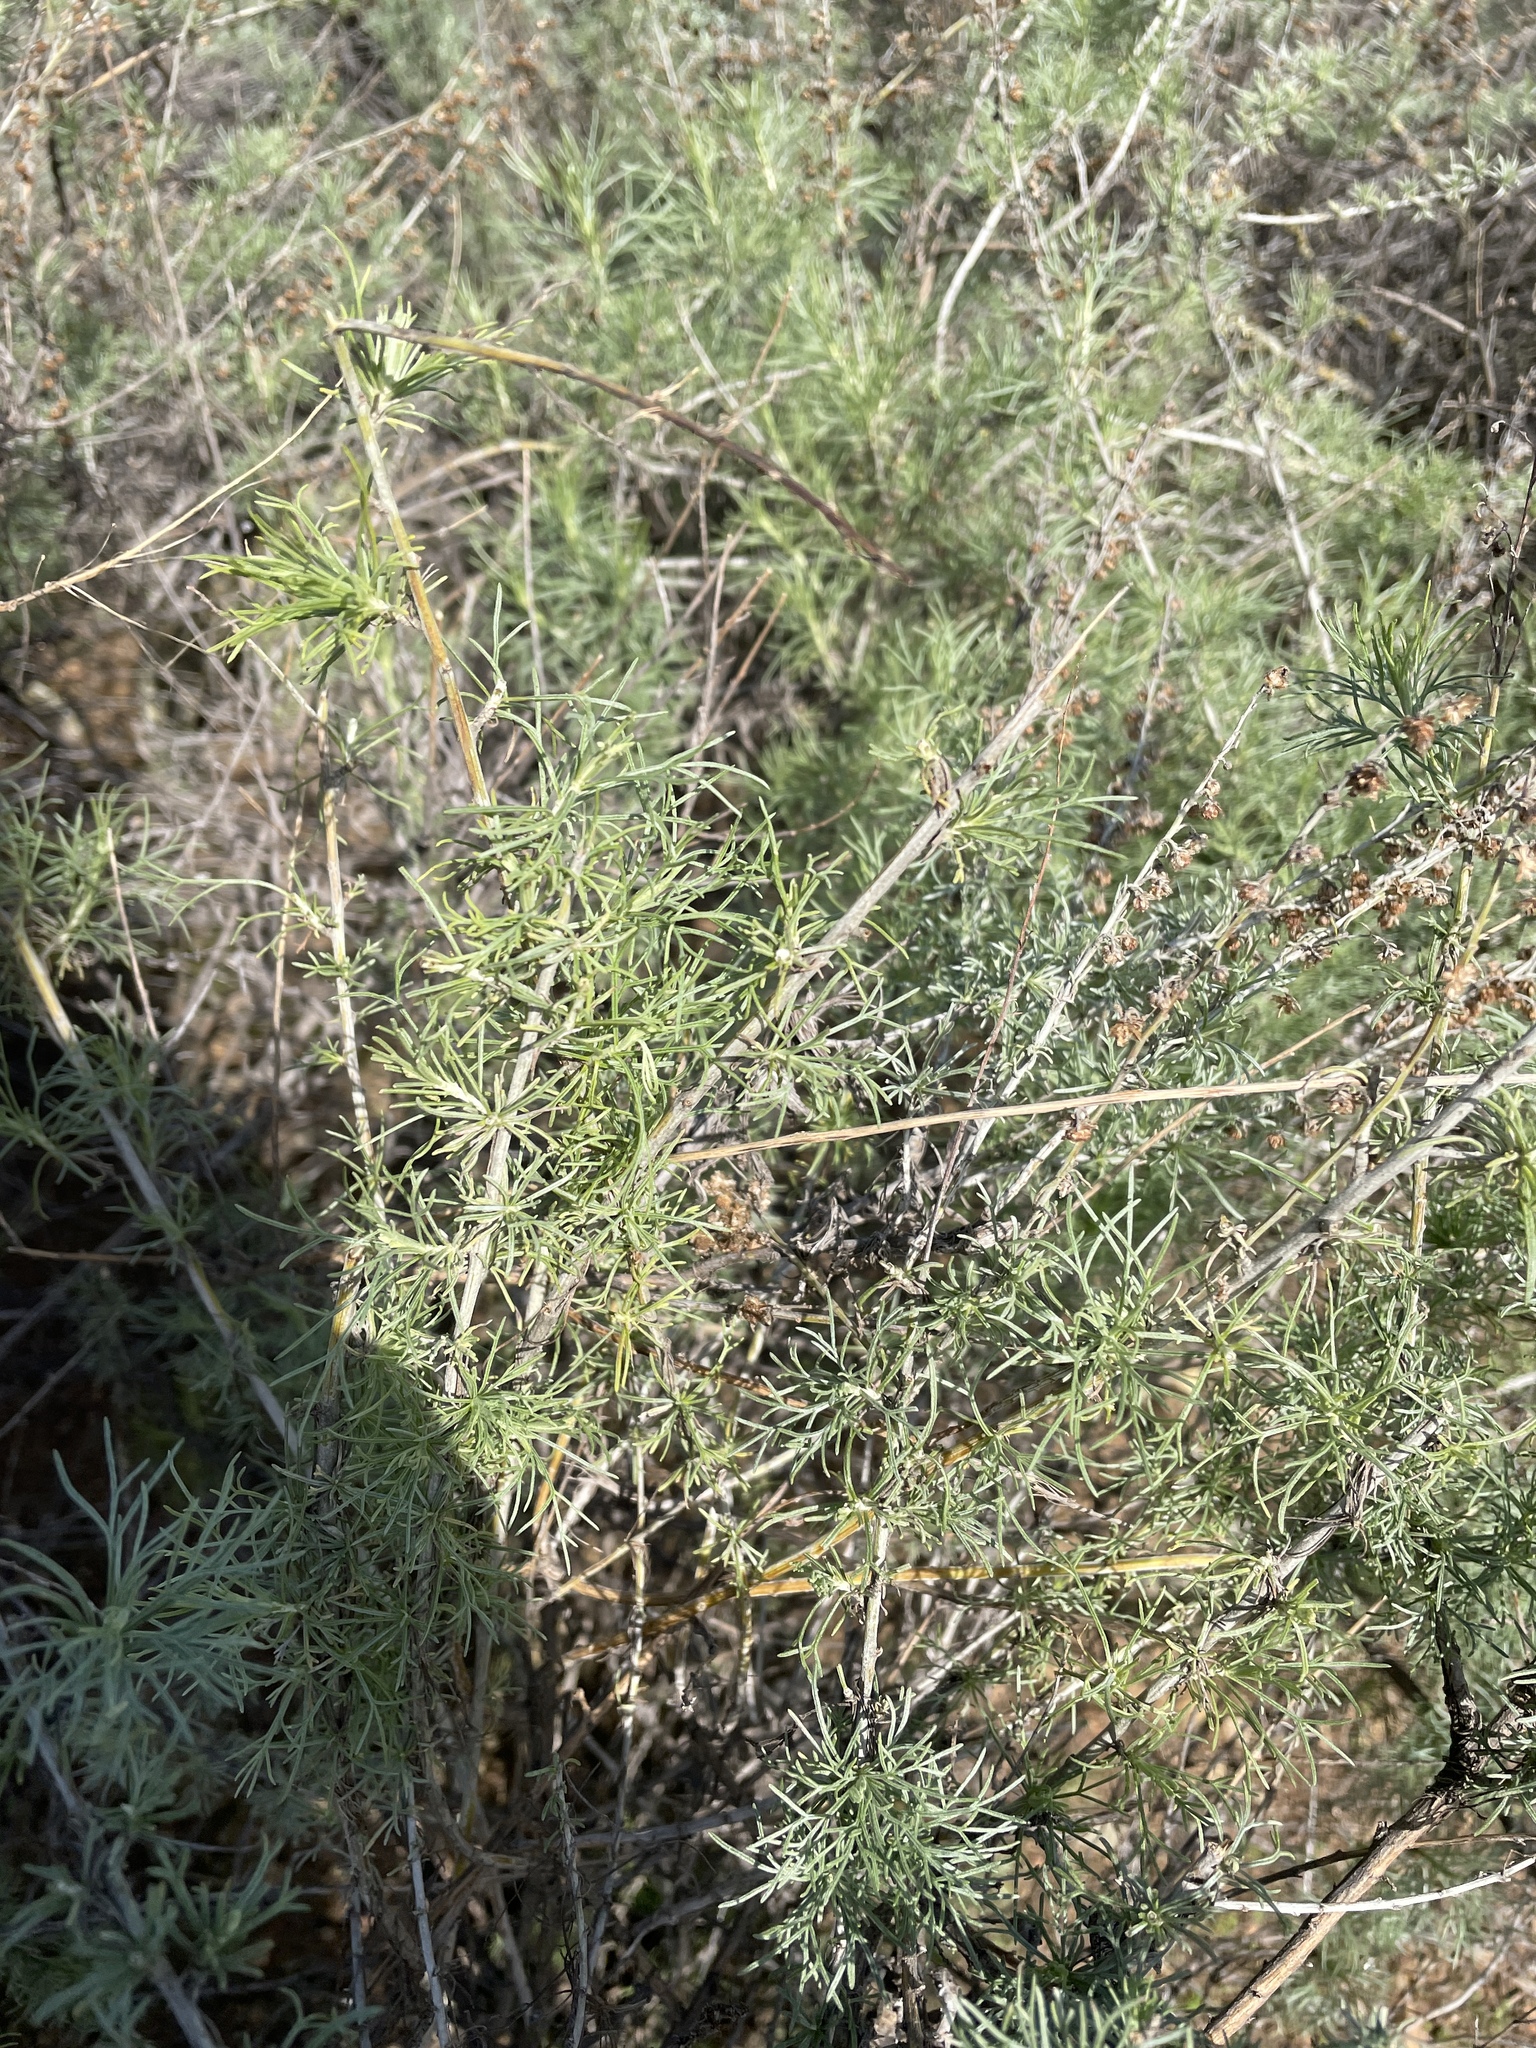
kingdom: Plantae
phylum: Tracheophyta
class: Magnoliopsida
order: Asterales
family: Asteraceae
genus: Artemisia
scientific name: Artemisia californica
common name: California sagebrush
